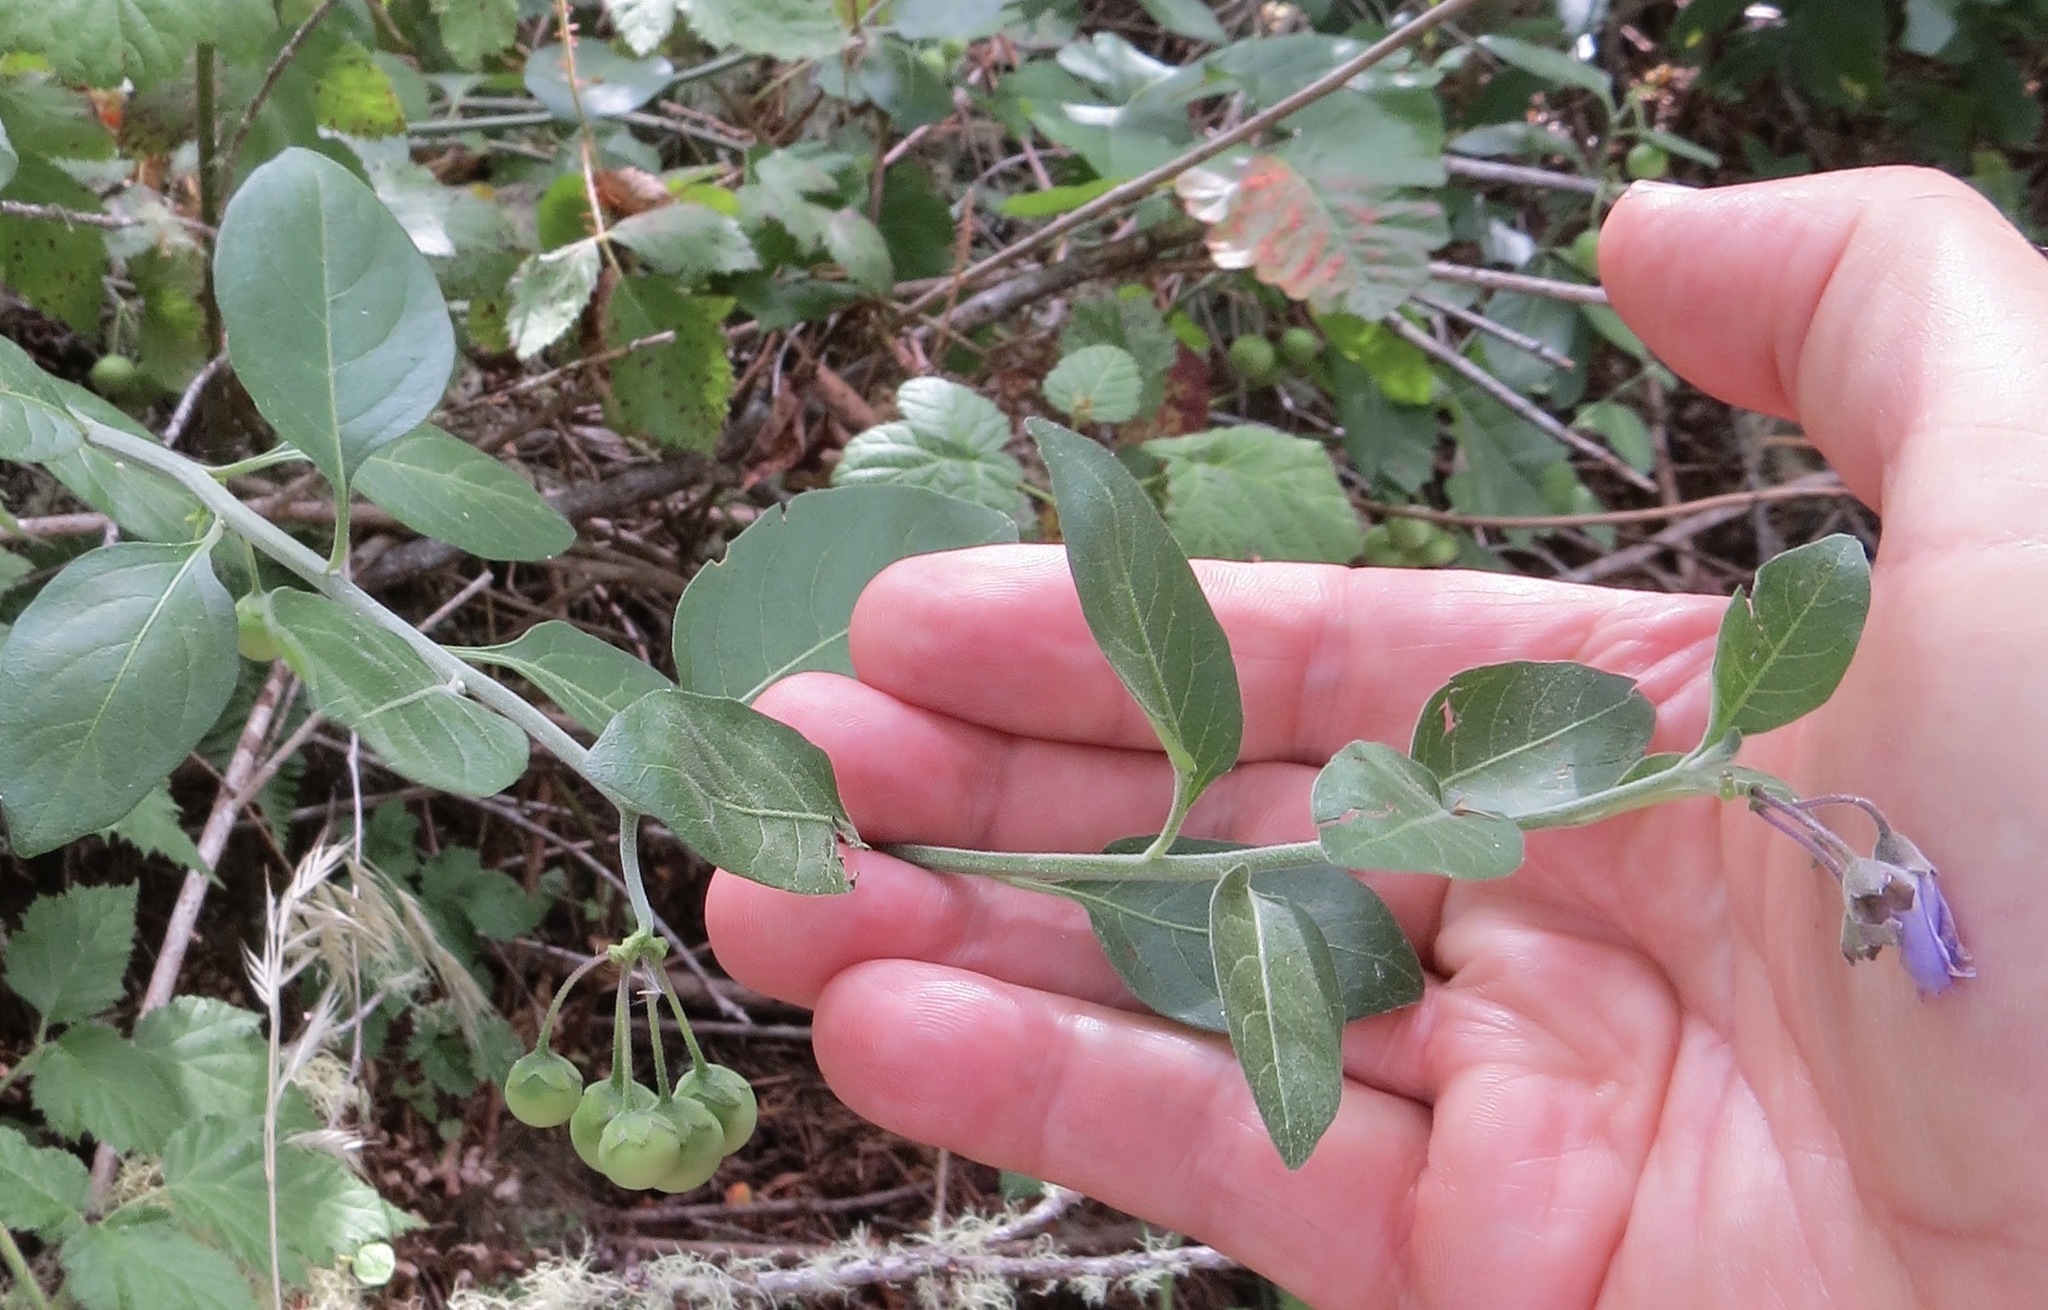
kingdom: Plantae
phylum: Tracheophyta
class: Magnoliopsida
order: Solanales
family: Solanaceae
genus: Solanum
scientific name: Solanum umbelliferum
